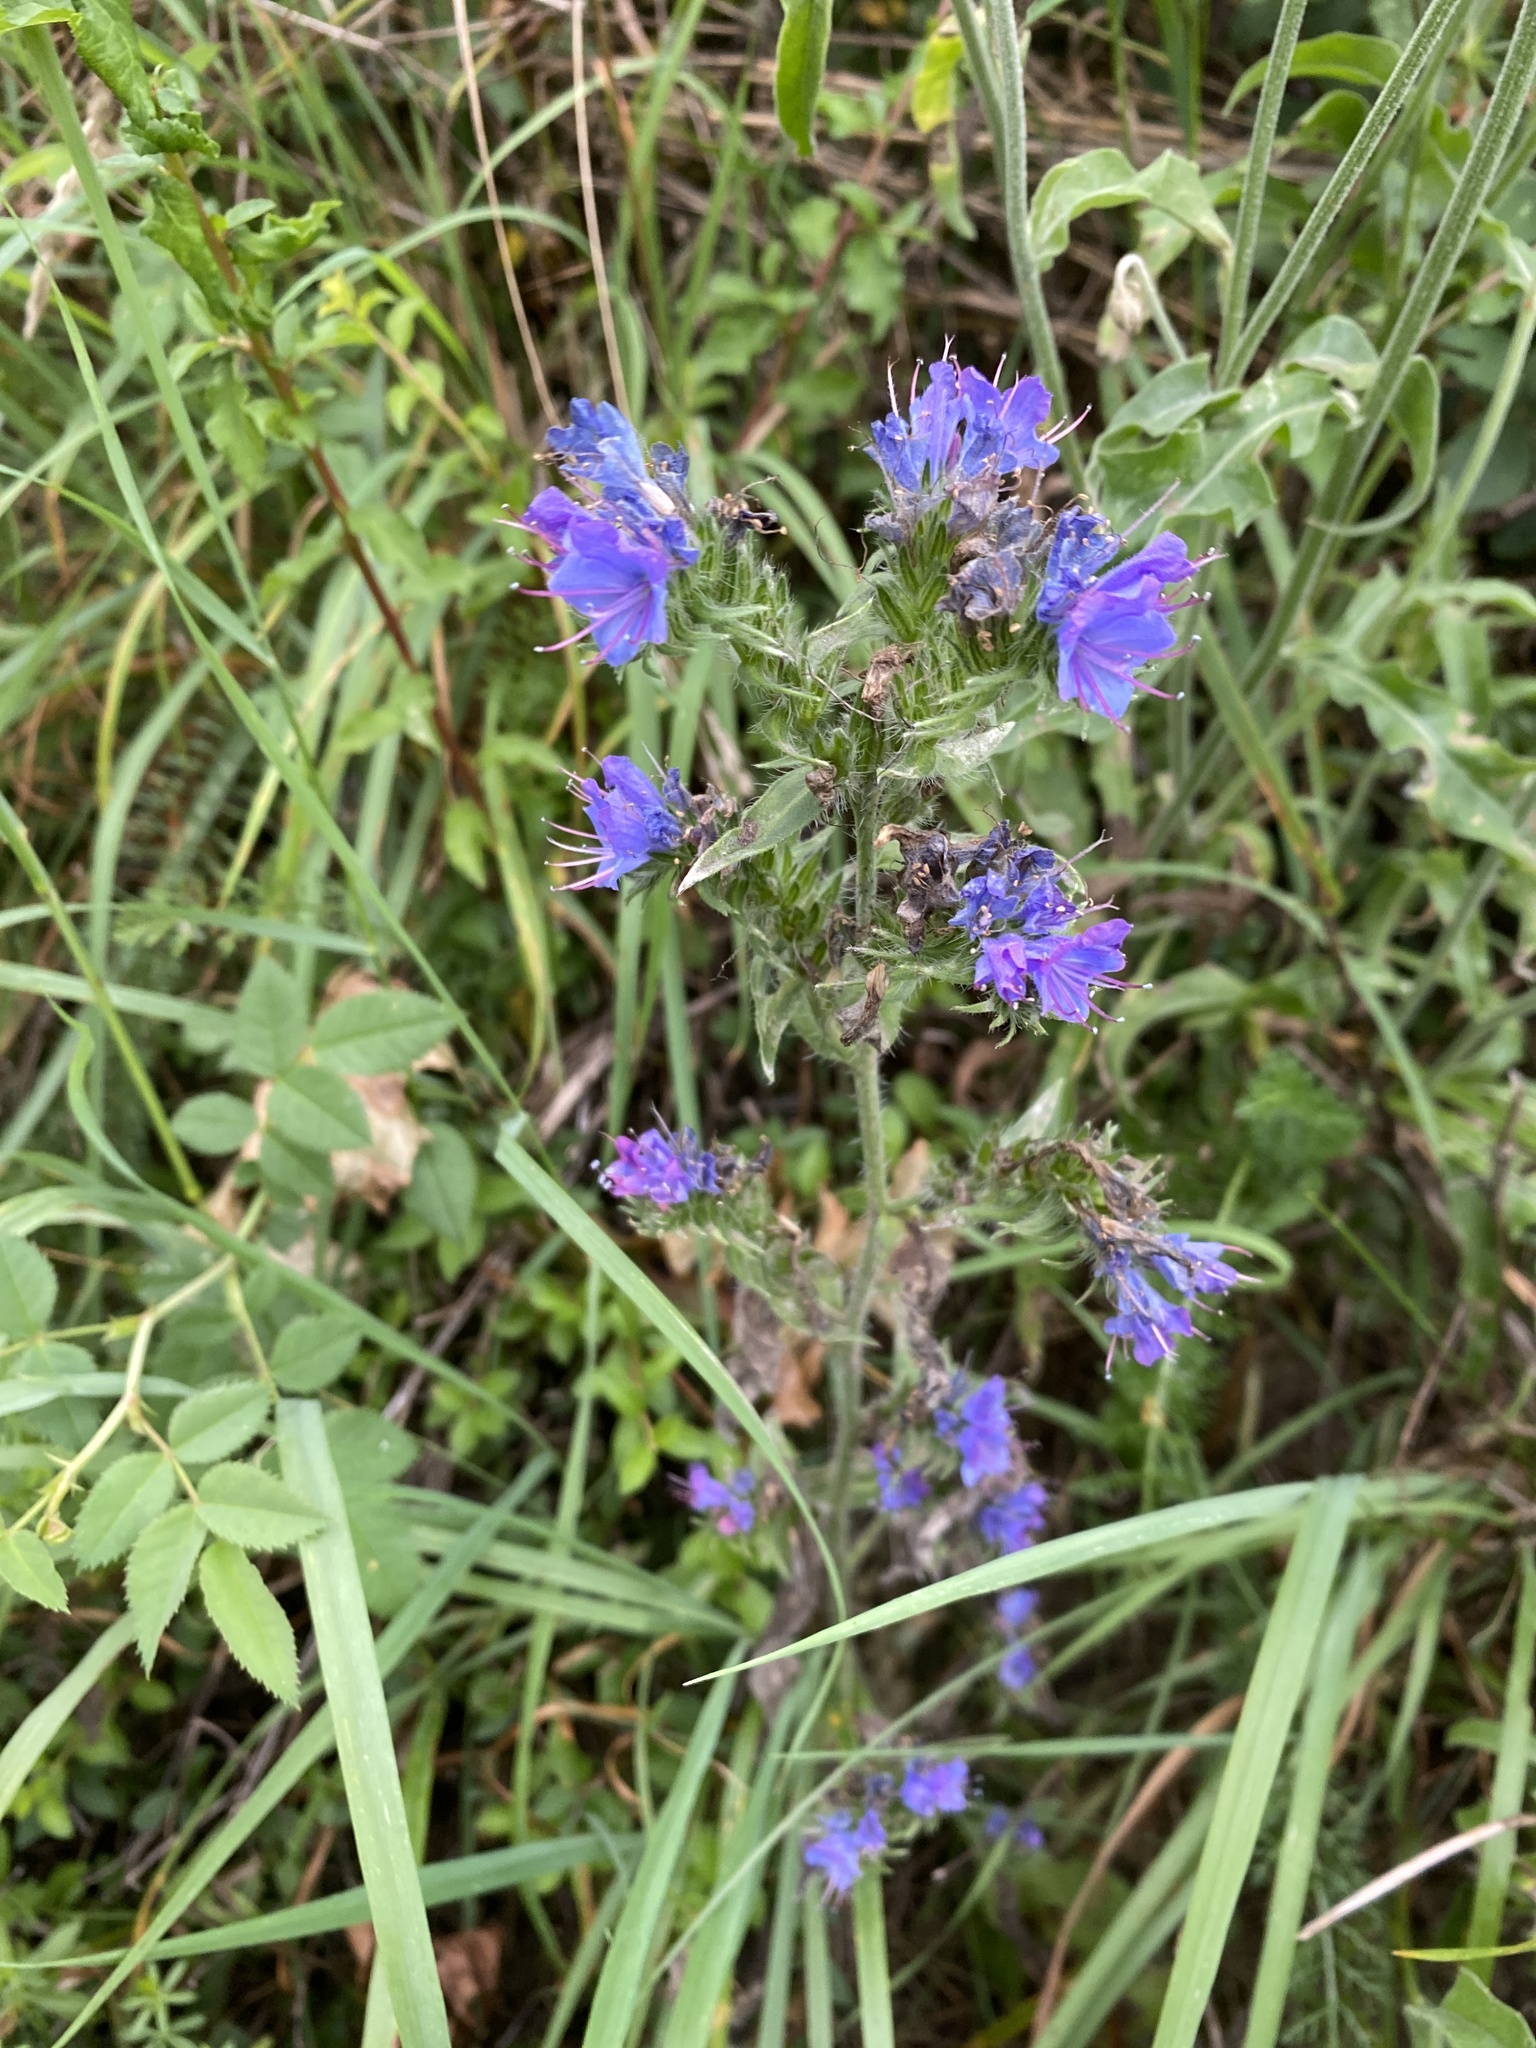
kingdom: Plantae
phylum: Tracheophyta
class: Magnoliopsida
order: Boraginales
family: Boraginaceae
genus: Echium
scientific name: Echium vulgare
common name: Common viper's bugloss
